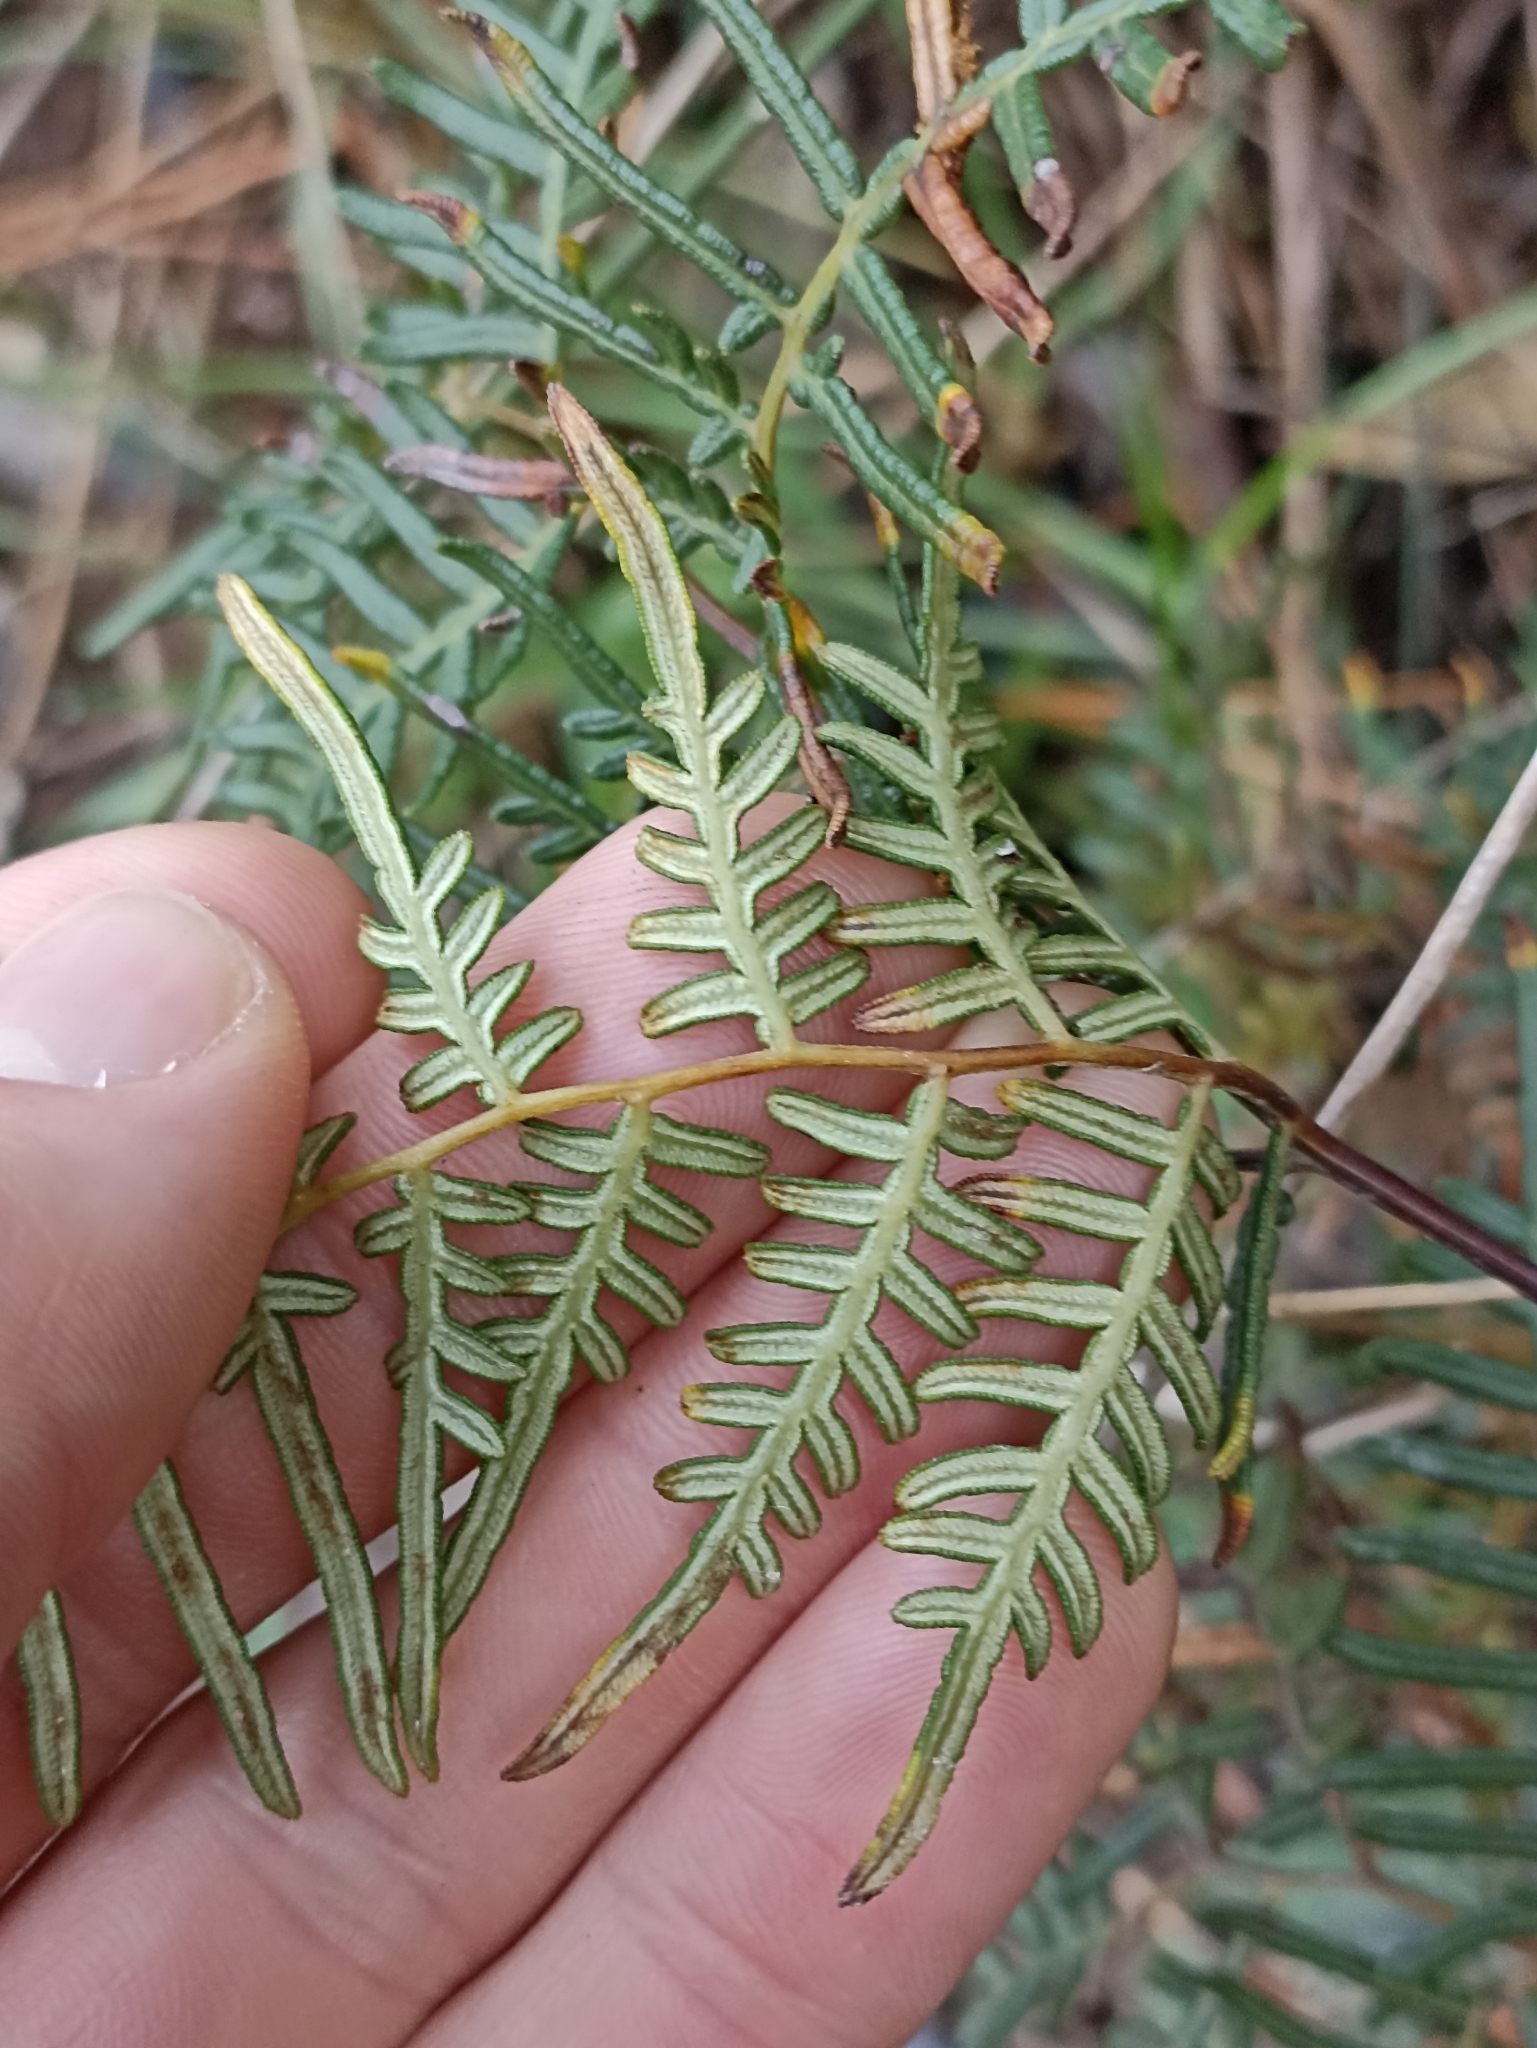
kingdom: Plantae
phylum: Tracheophyta
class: Polypodiopsida
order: Polypodiales
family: Dennstaedtiaceae
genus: Pteridium
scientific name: Pteridium esculentum
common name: Bracken fern
